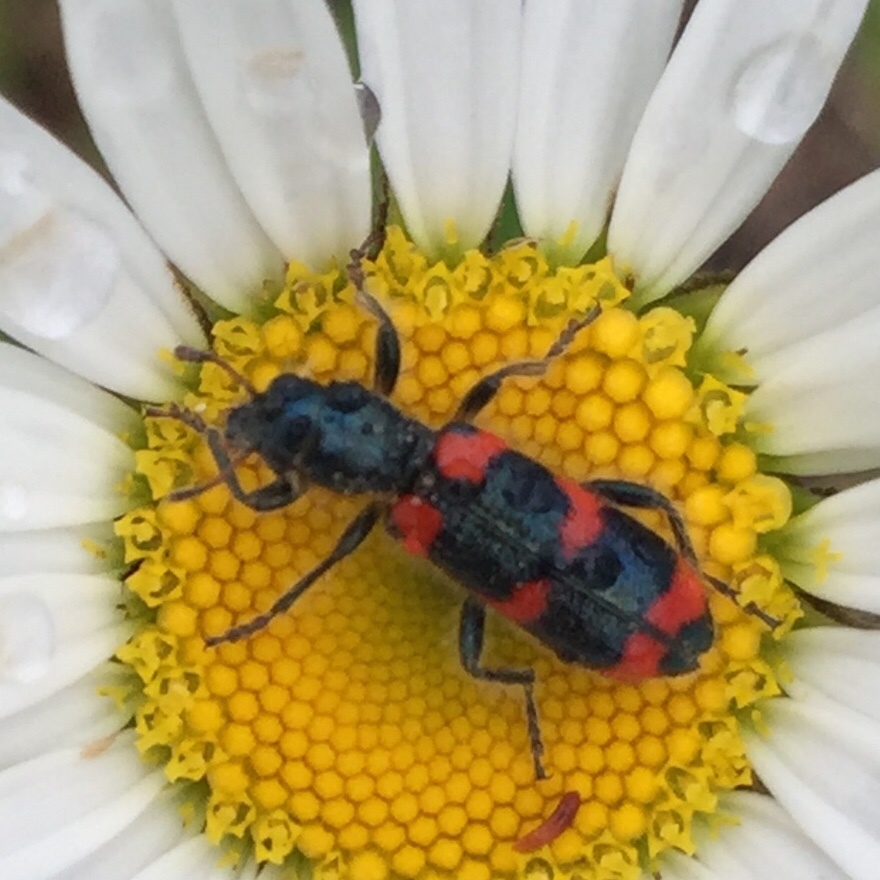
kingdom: Animalia
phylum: Arthropoda
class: Insecta
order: Coleoptera
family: Cleridae
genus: Trichodes
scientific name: Trichodes nutalli
